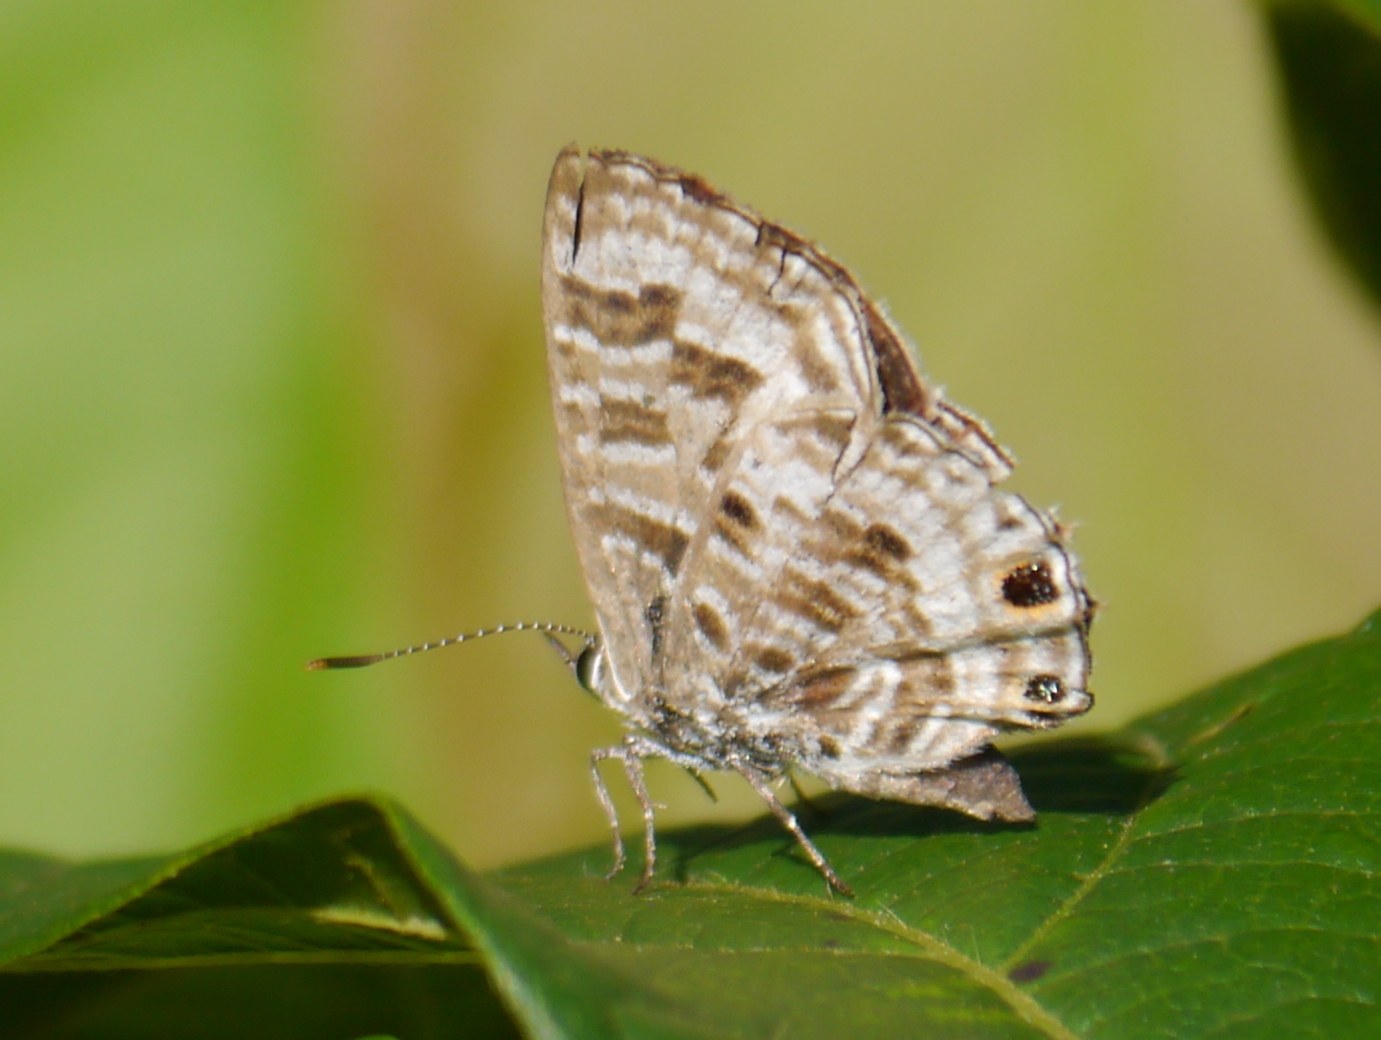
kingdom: Animalia
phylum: Arthropoda
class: Insecta
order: Lepidoptera
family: Lycaenidae
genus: Anthene
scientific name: Anthene larydas
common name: Forest hairtail
